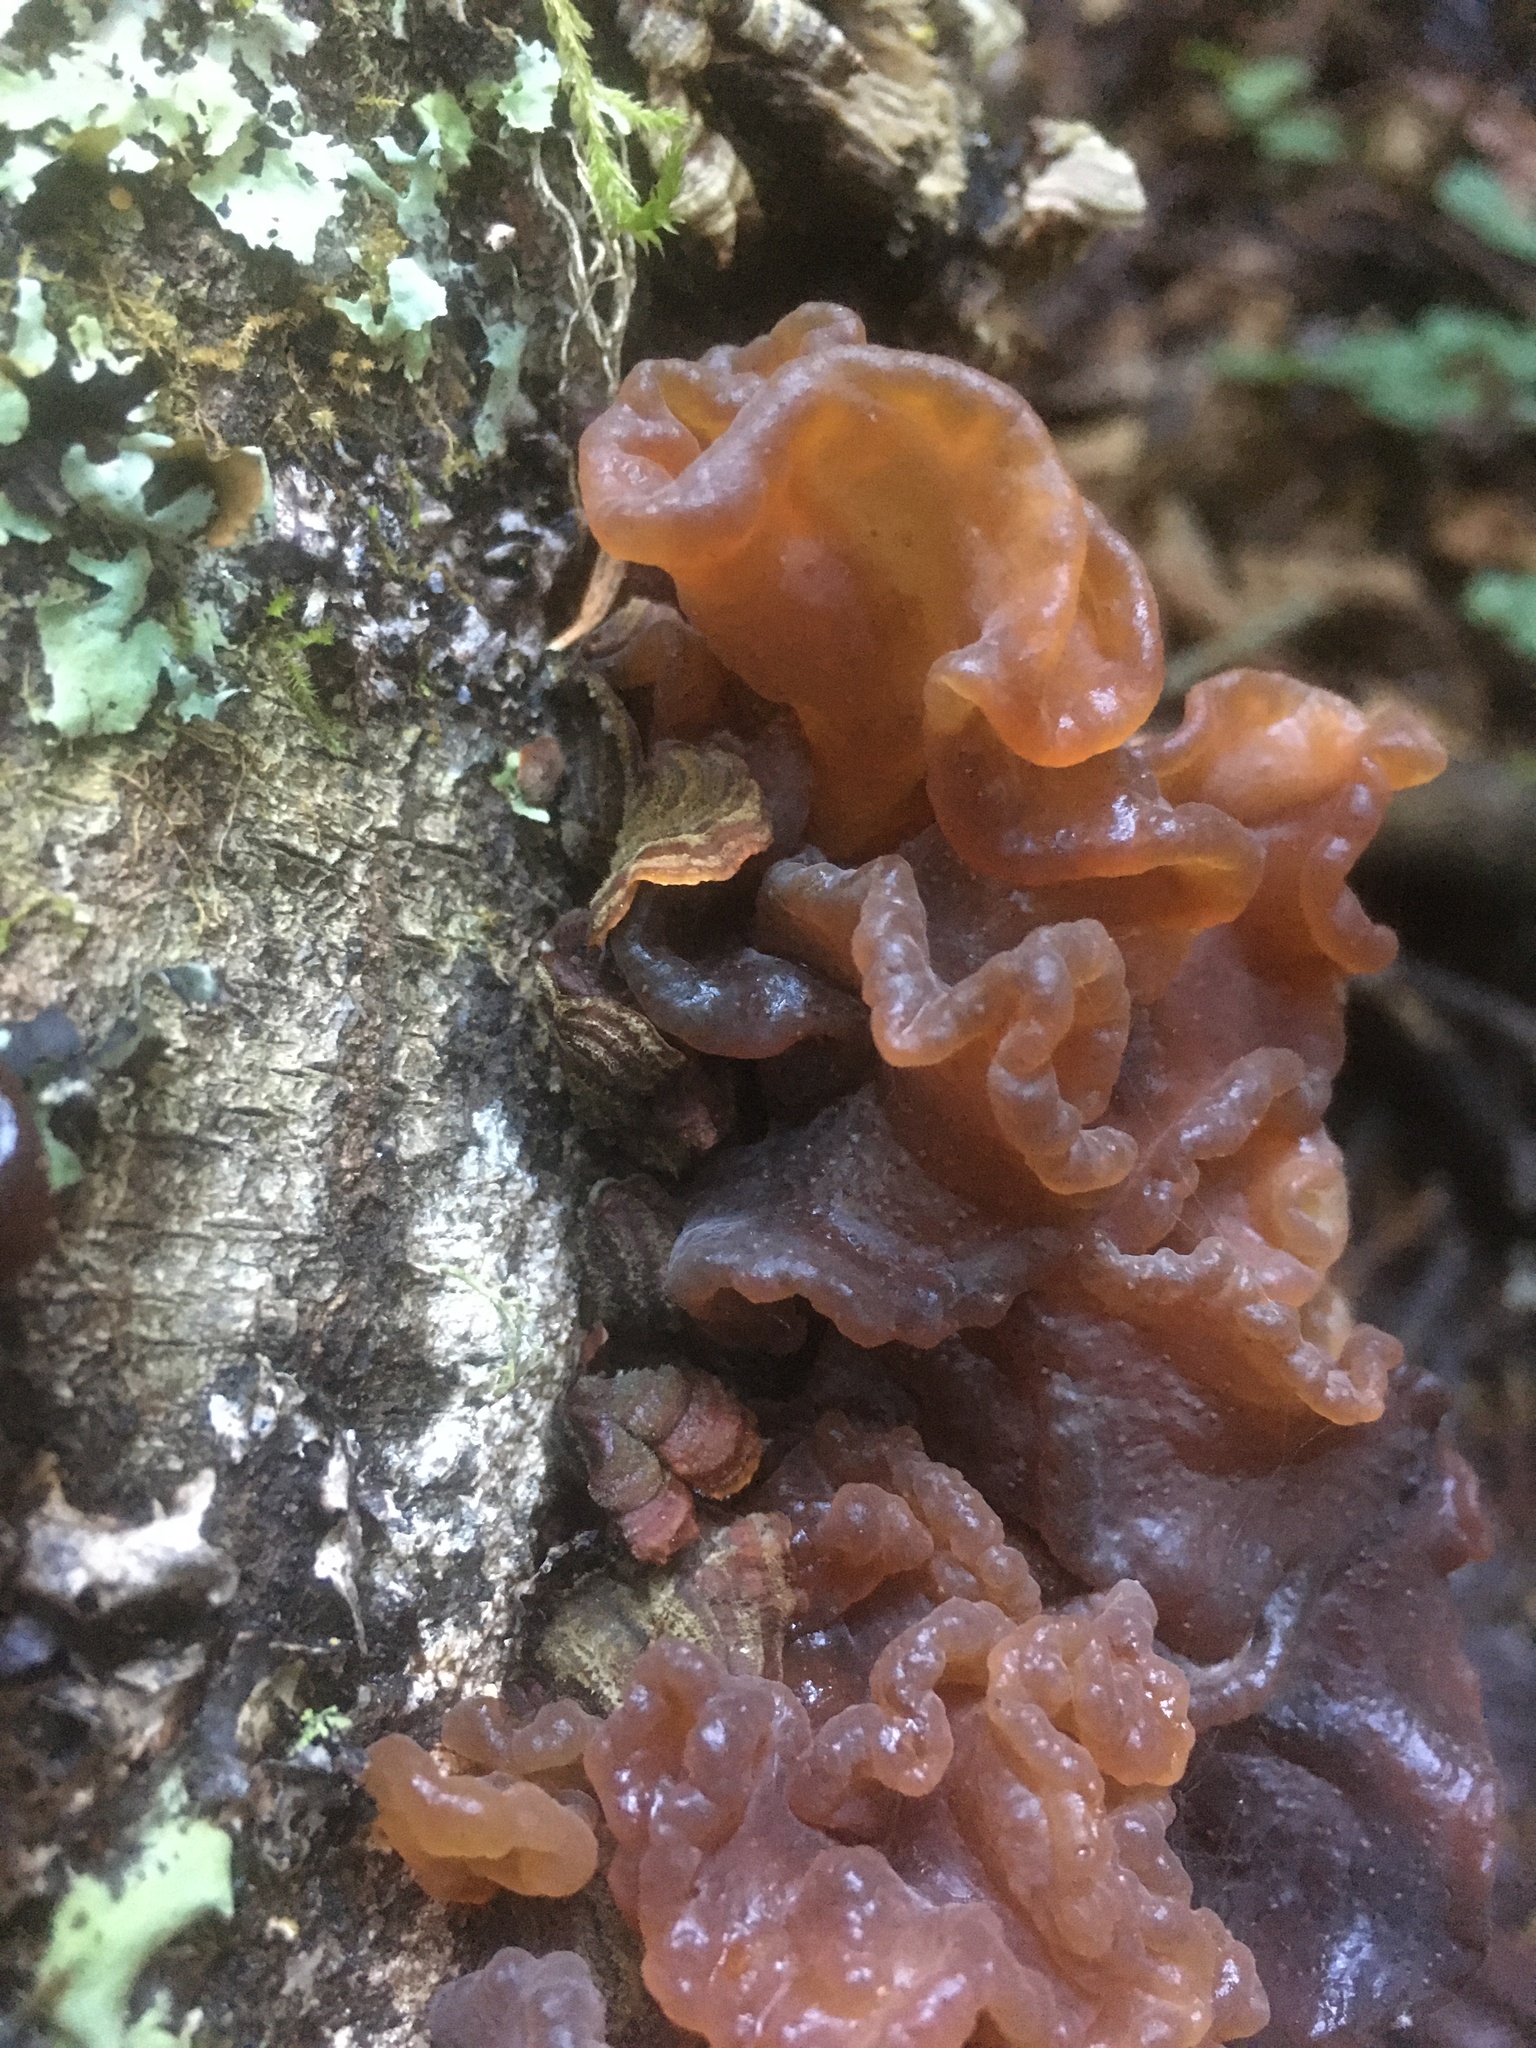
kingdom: Fungi
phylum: Basidiomycota
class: Tremellomycetes
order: Tremellales
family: Tremellaceae
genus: Phaeotremella
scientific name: Phaeotremella foliacea
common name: Leafy brain
